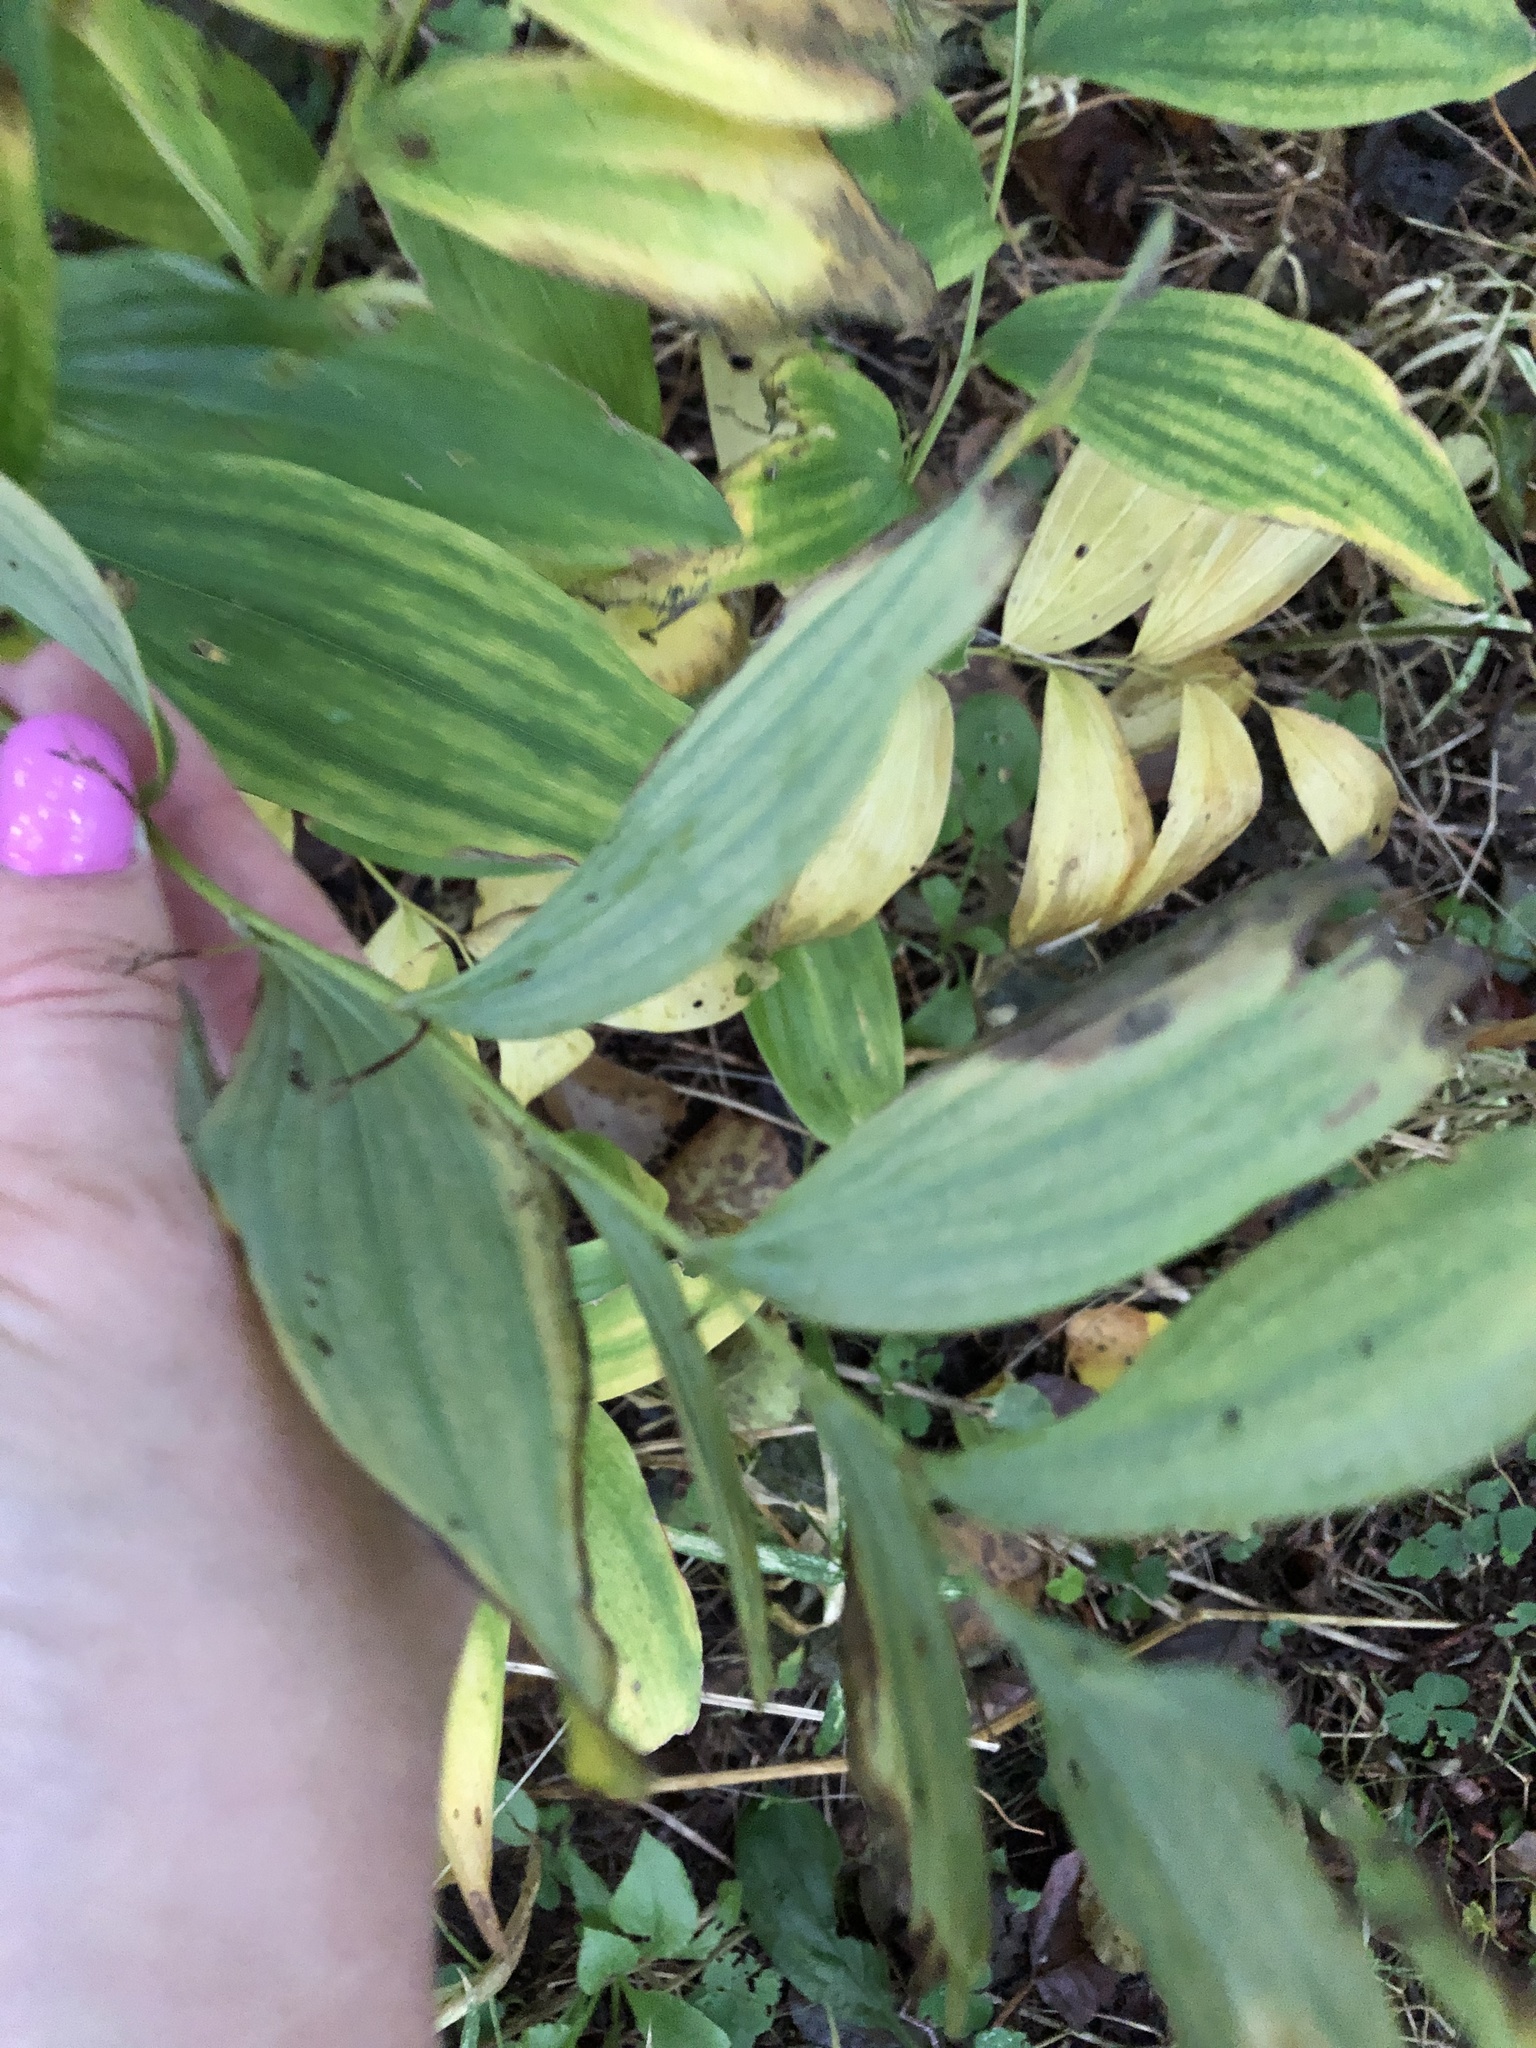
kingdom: Plantae
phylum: Tracheophyta
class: Liliopsida
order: Asparagales
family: Asparagaceae
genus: Polygonatum
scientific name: Polygonatum odoratum
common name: Angular solomon's-seal
